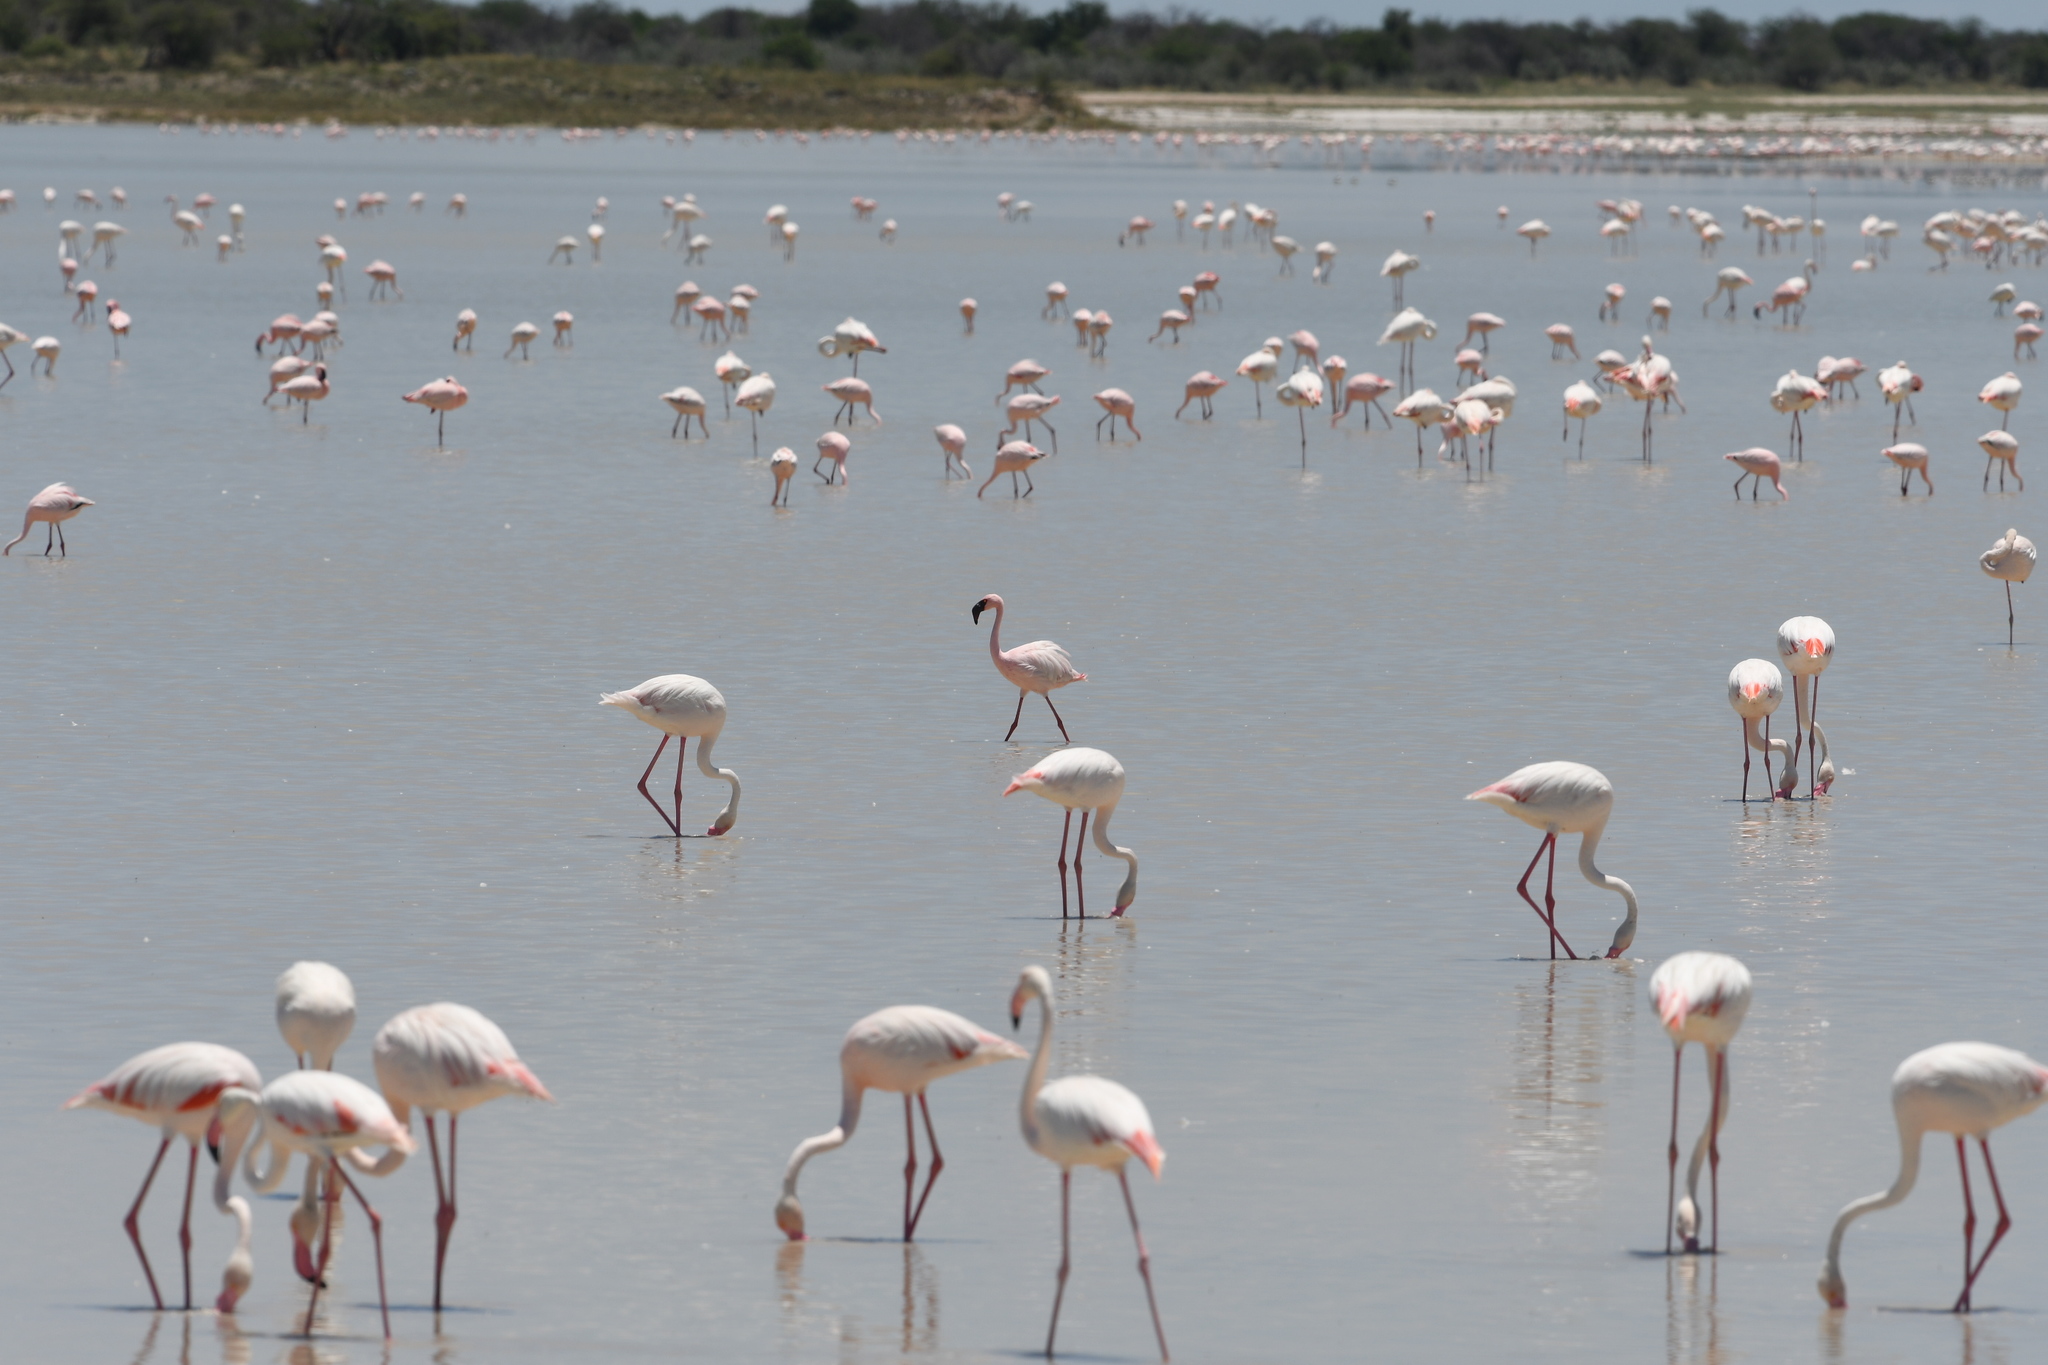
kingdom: Animalia
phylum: Chordata
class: Aves
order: Phoenicopteriformes
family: Phoenicopteridae
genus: Phoeniconaias
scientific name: Phoeniconaias minor
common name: Lesser flamingo
